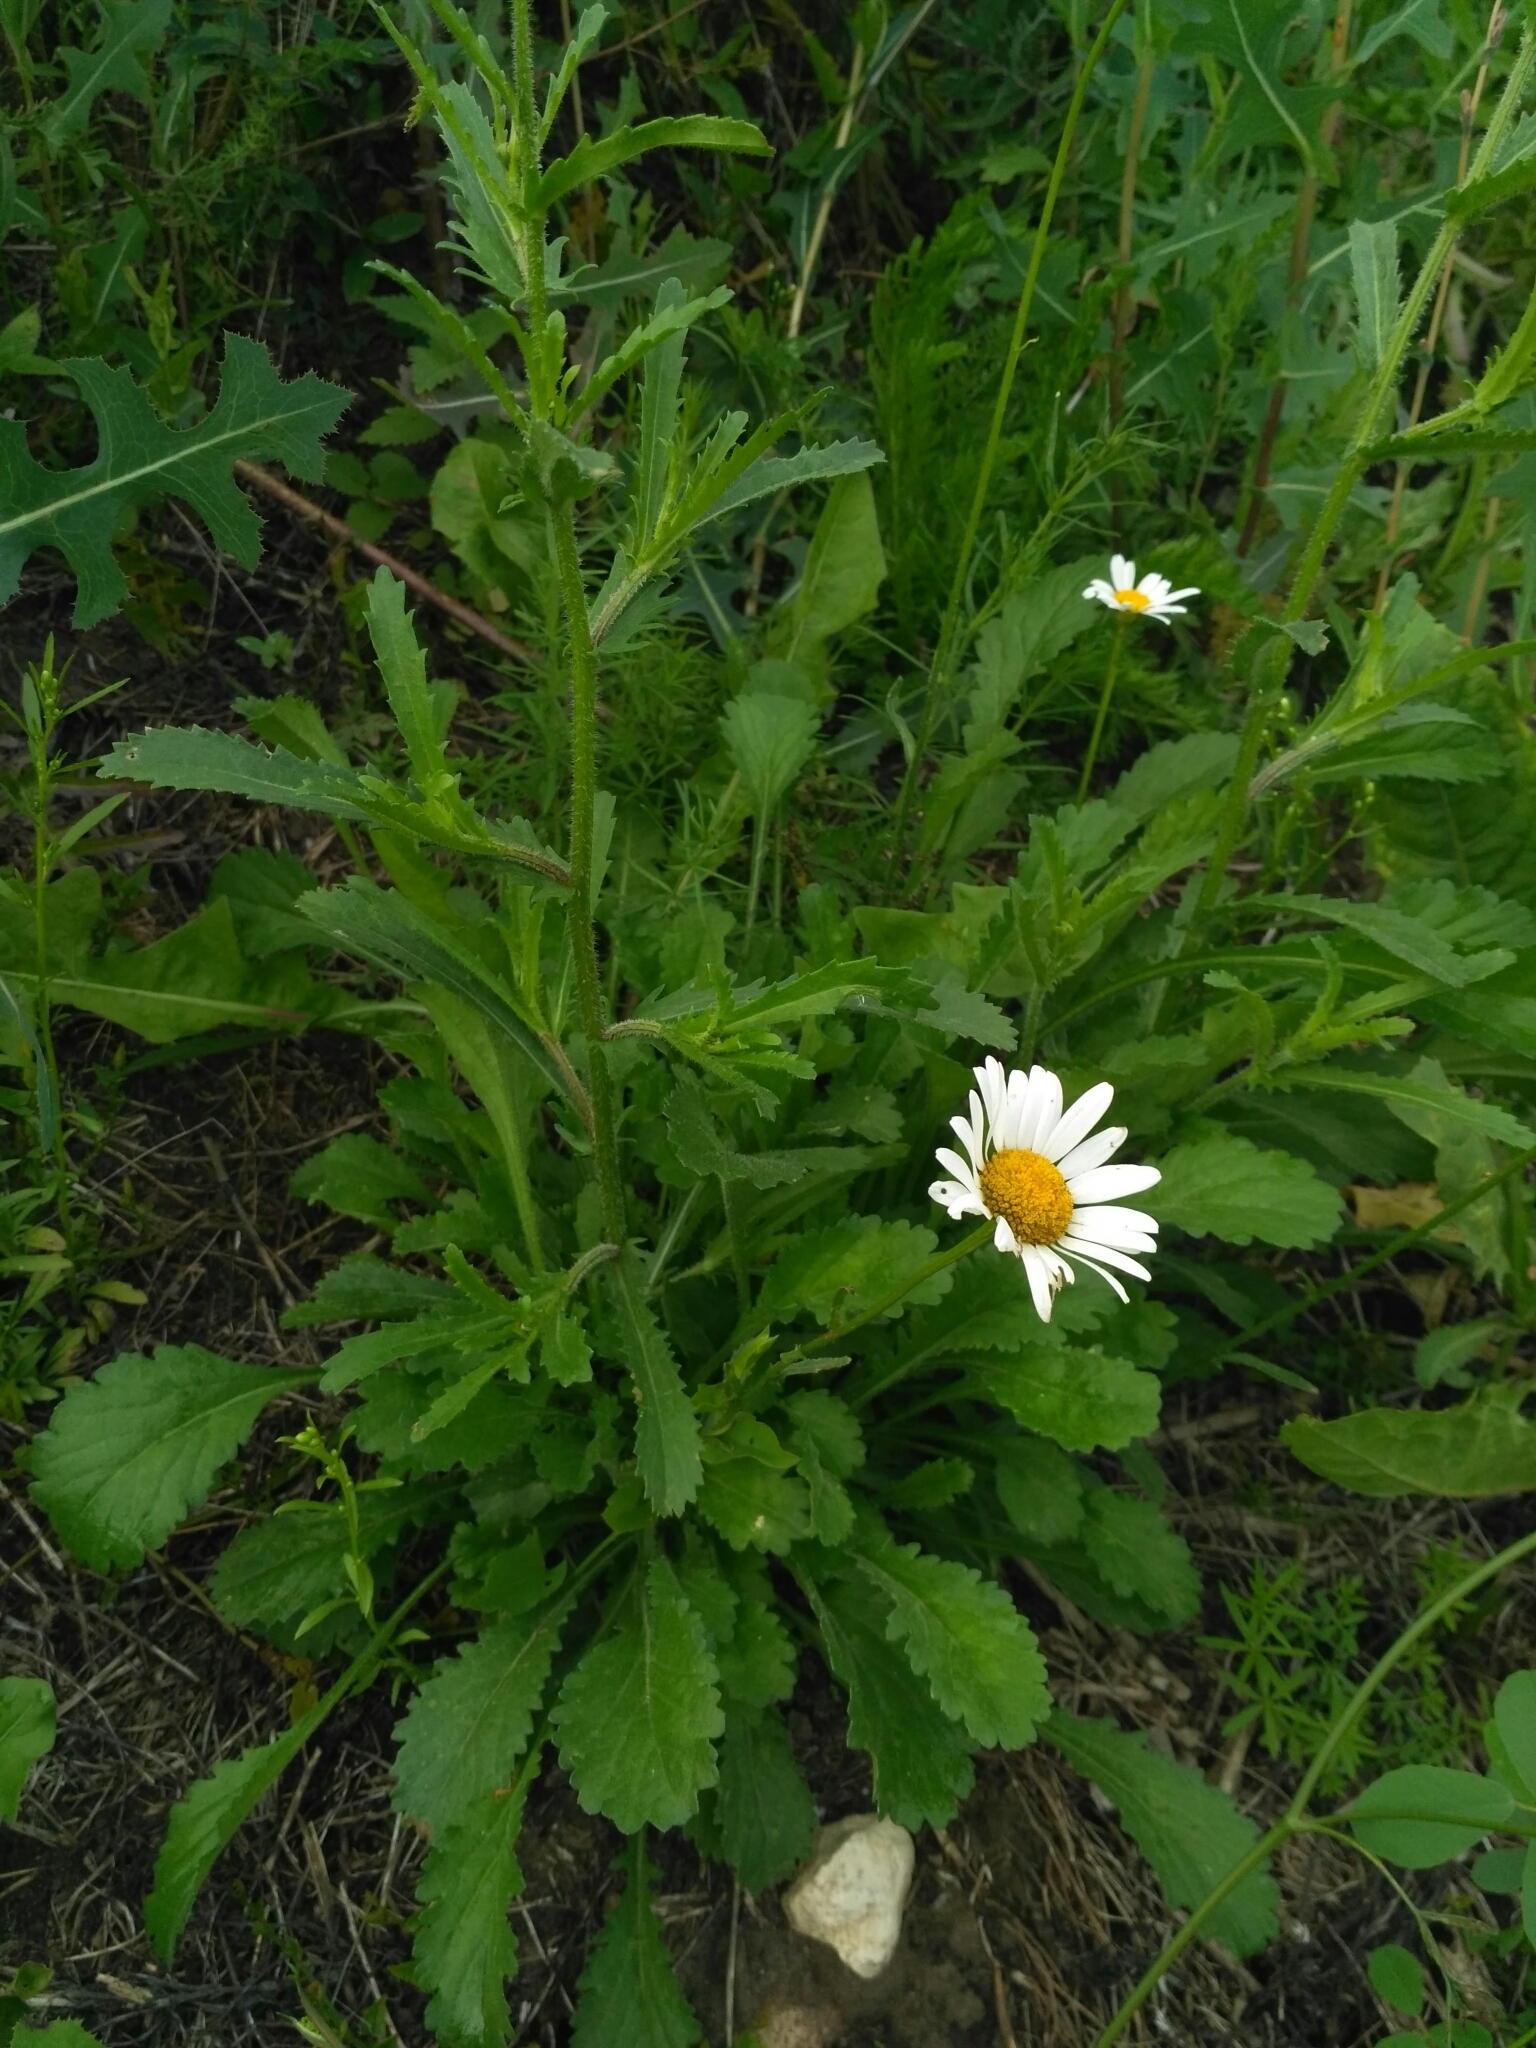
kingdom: Plantae
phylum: Tracheophyta
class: Magnoliopsida
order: Asterales
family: Asteraceae
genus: Leucanthemum
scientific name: Leucanthemum vulgare
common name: Oxeye daisy
